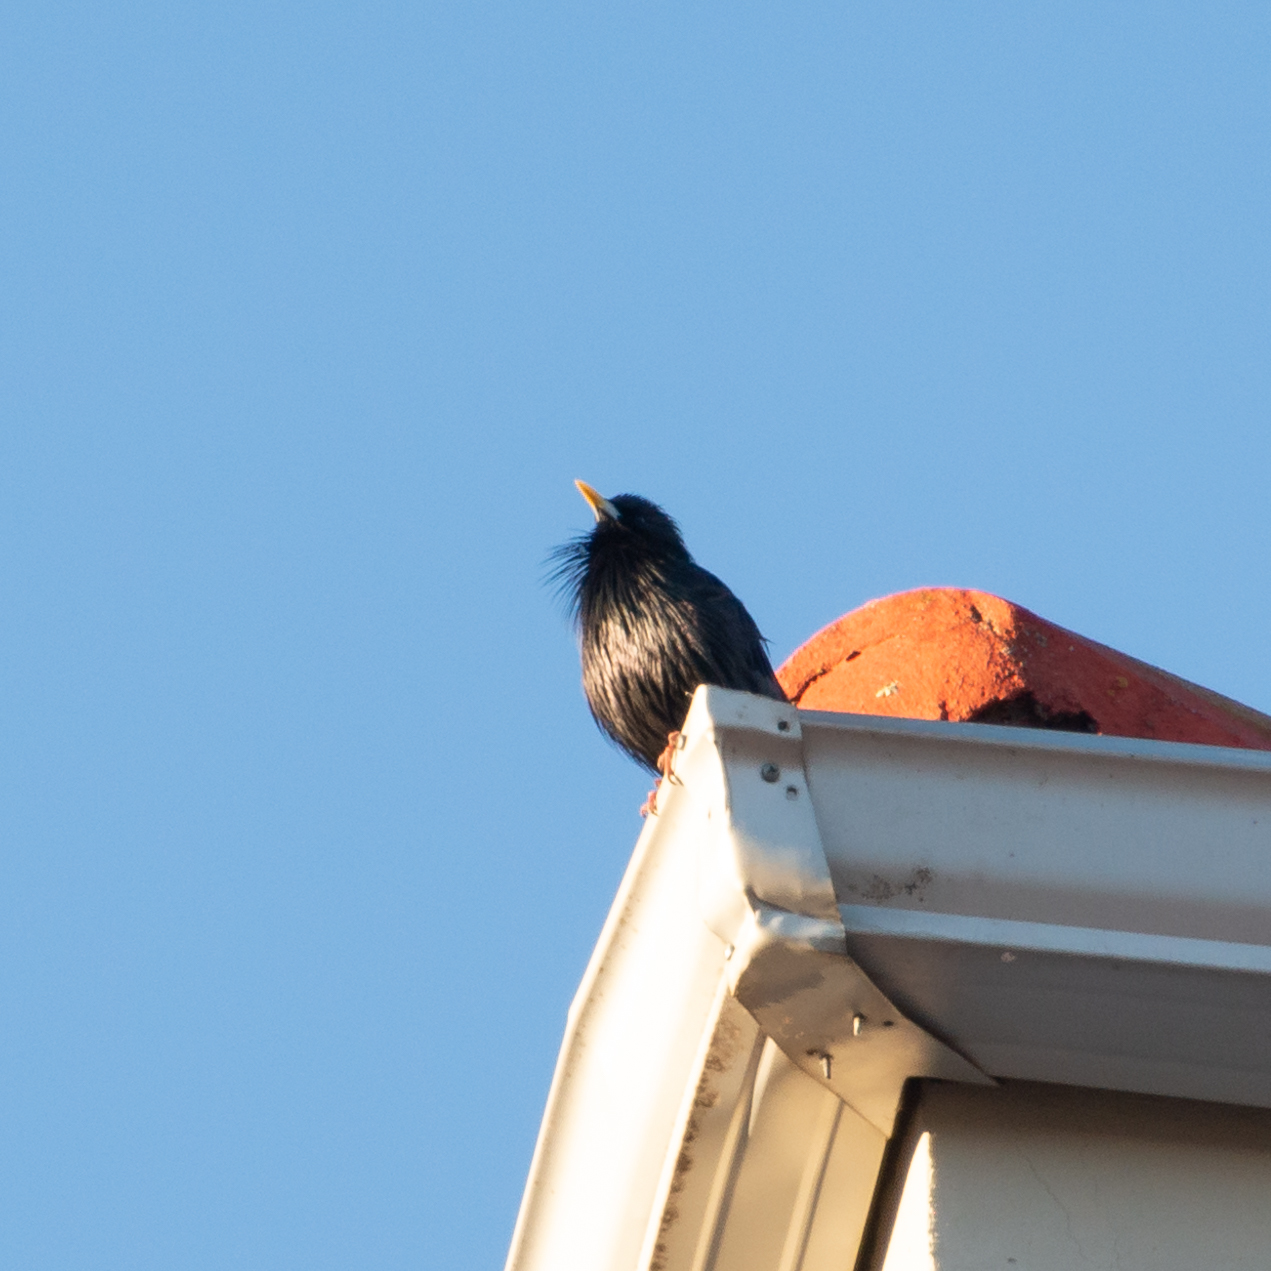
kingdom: Animalia
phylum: Chordata
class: Aves
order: Passeriformes
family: Sturnidae
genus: Sturnus
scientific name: Sturnus unicolor
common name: Spotless starling
